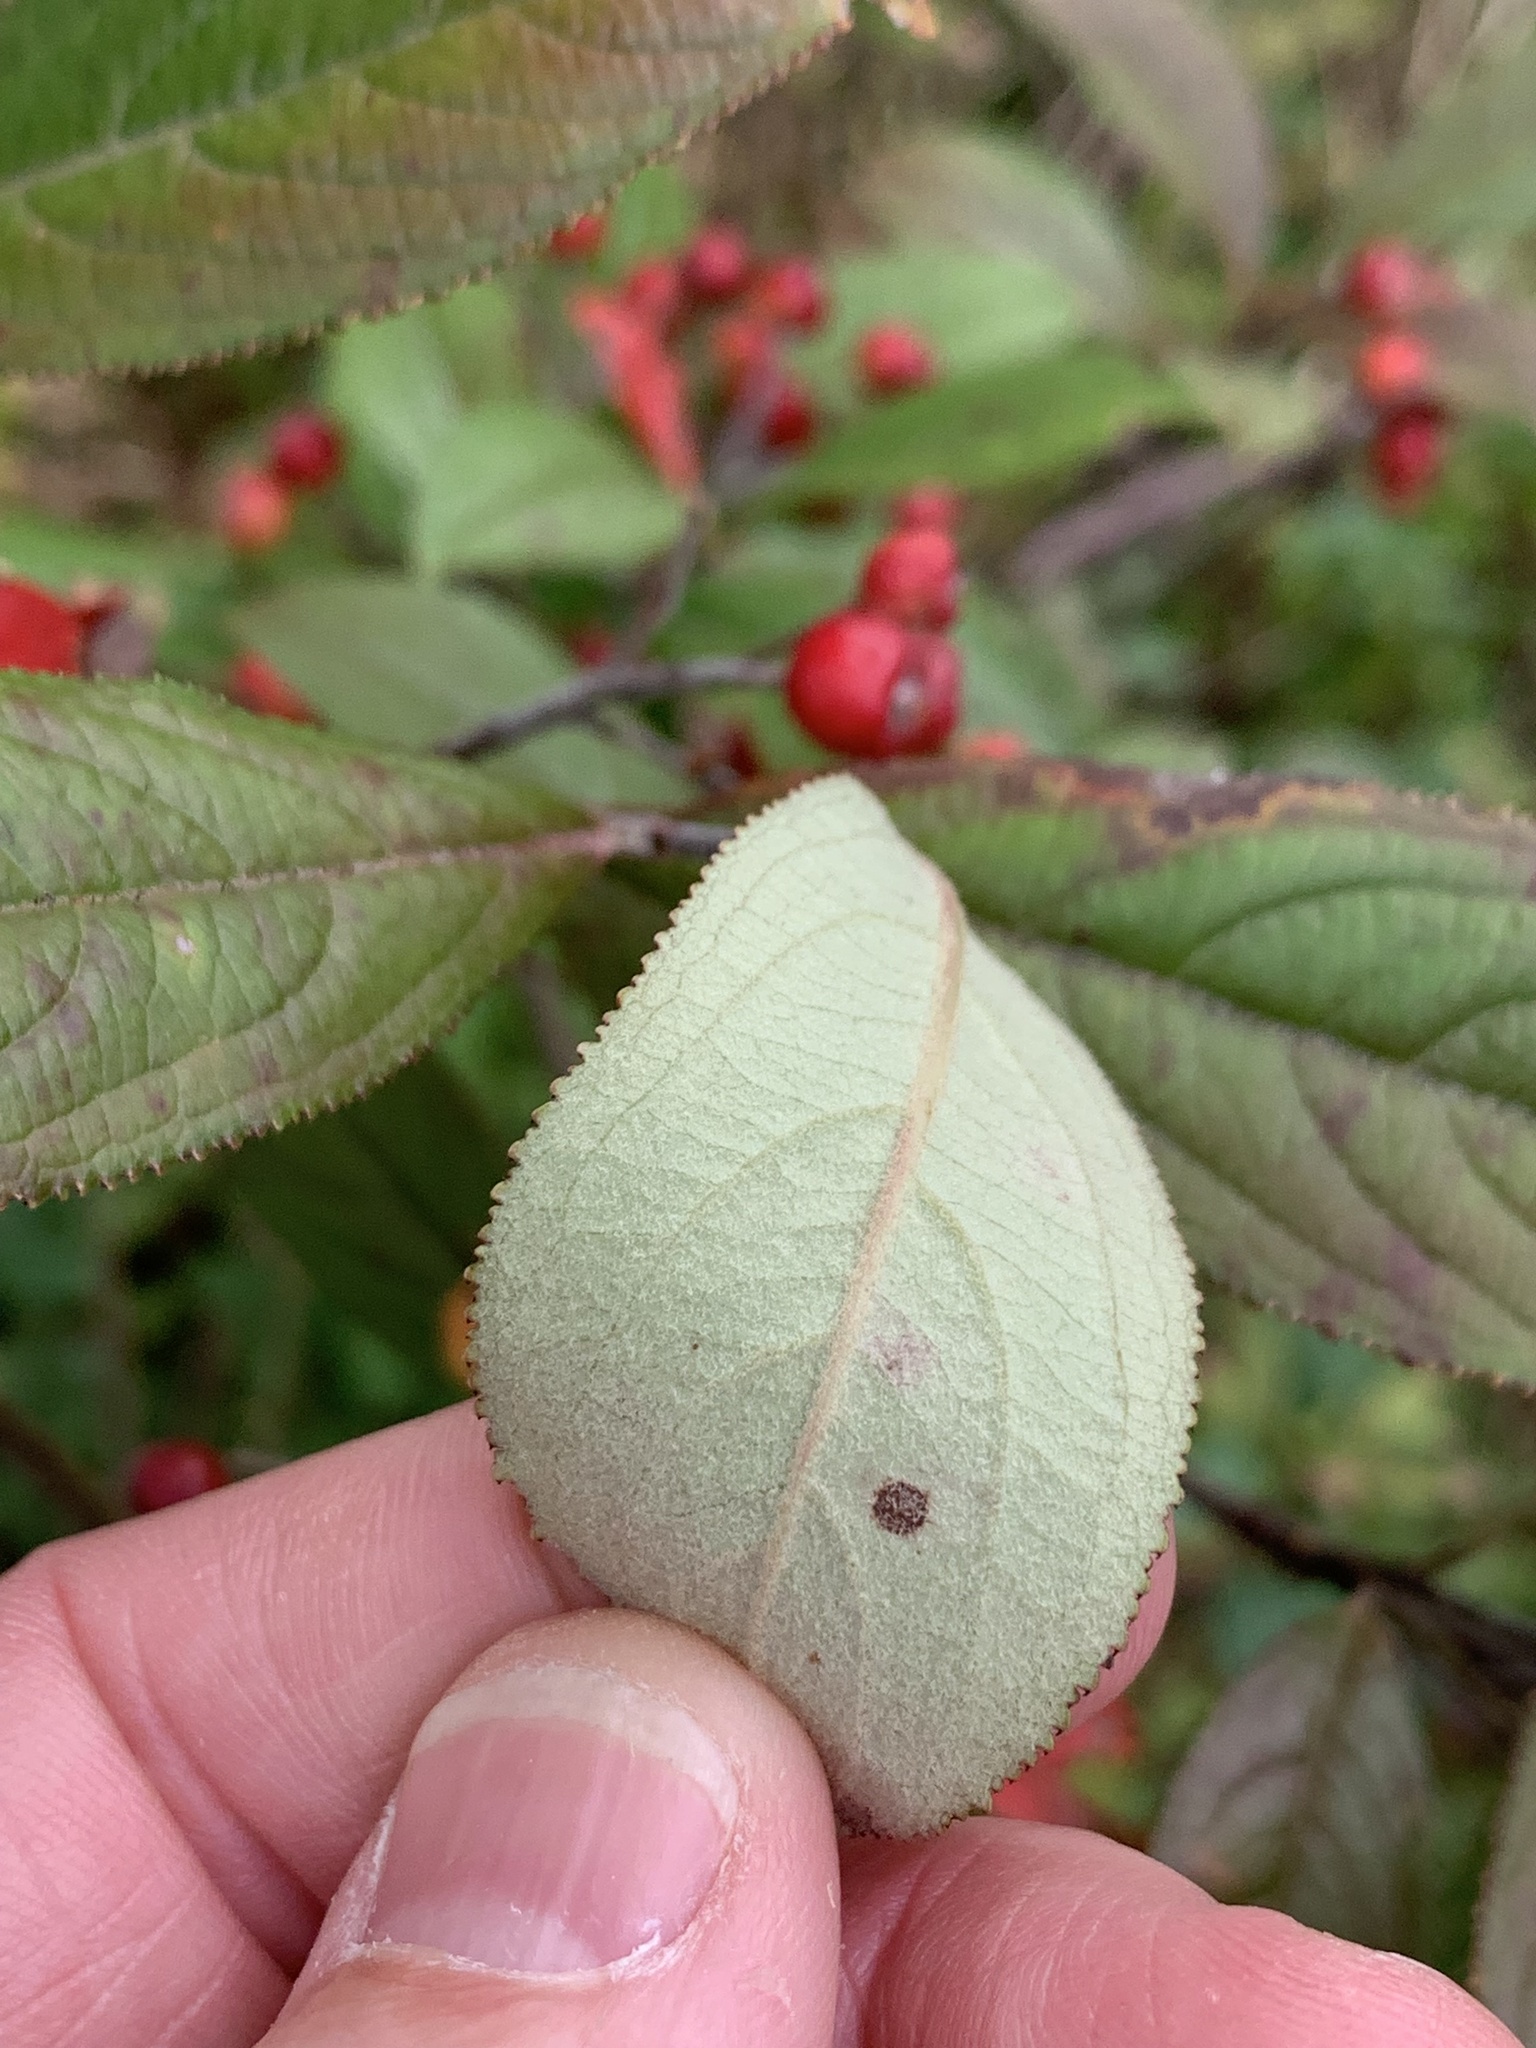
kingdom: Plantae
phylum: Tracheophyta
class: Magnoliopsida
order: Rosales
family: Rosaceae
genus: Aronia
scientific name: Aronia arbutifolia
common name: Red chokeberry
